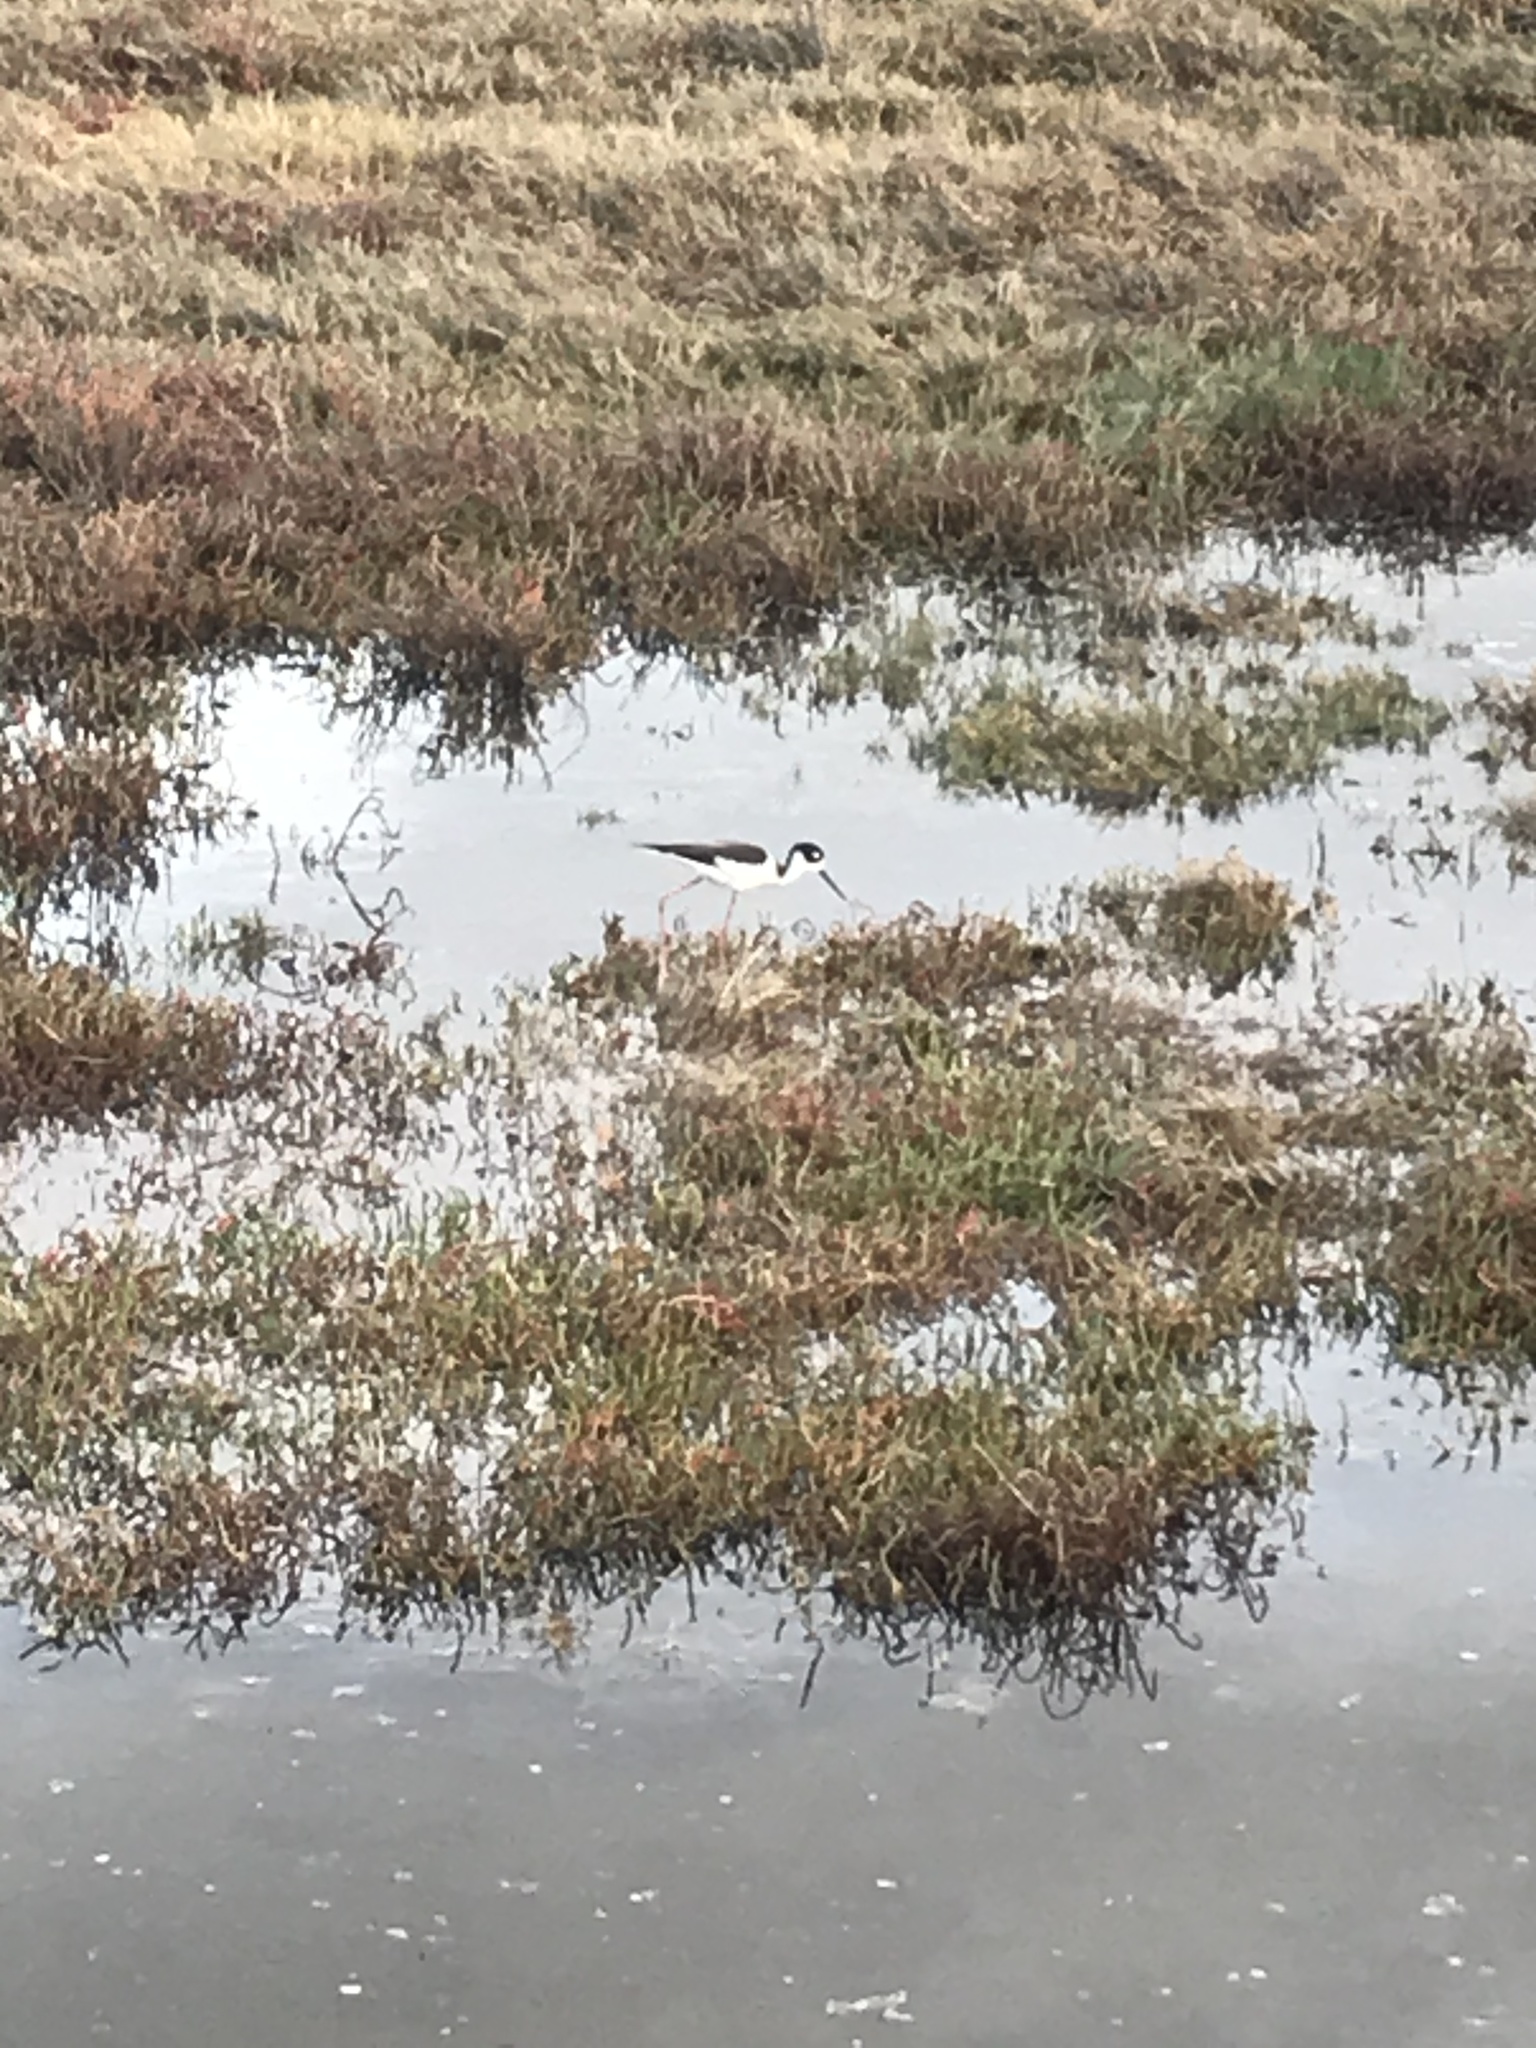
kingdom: Animalia
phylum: Chordata
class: Aves
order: Charadriiformes
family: Recurvirostridae
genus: Himantopus
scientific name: Himantopus mexicanus
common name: Black-necked stilt
